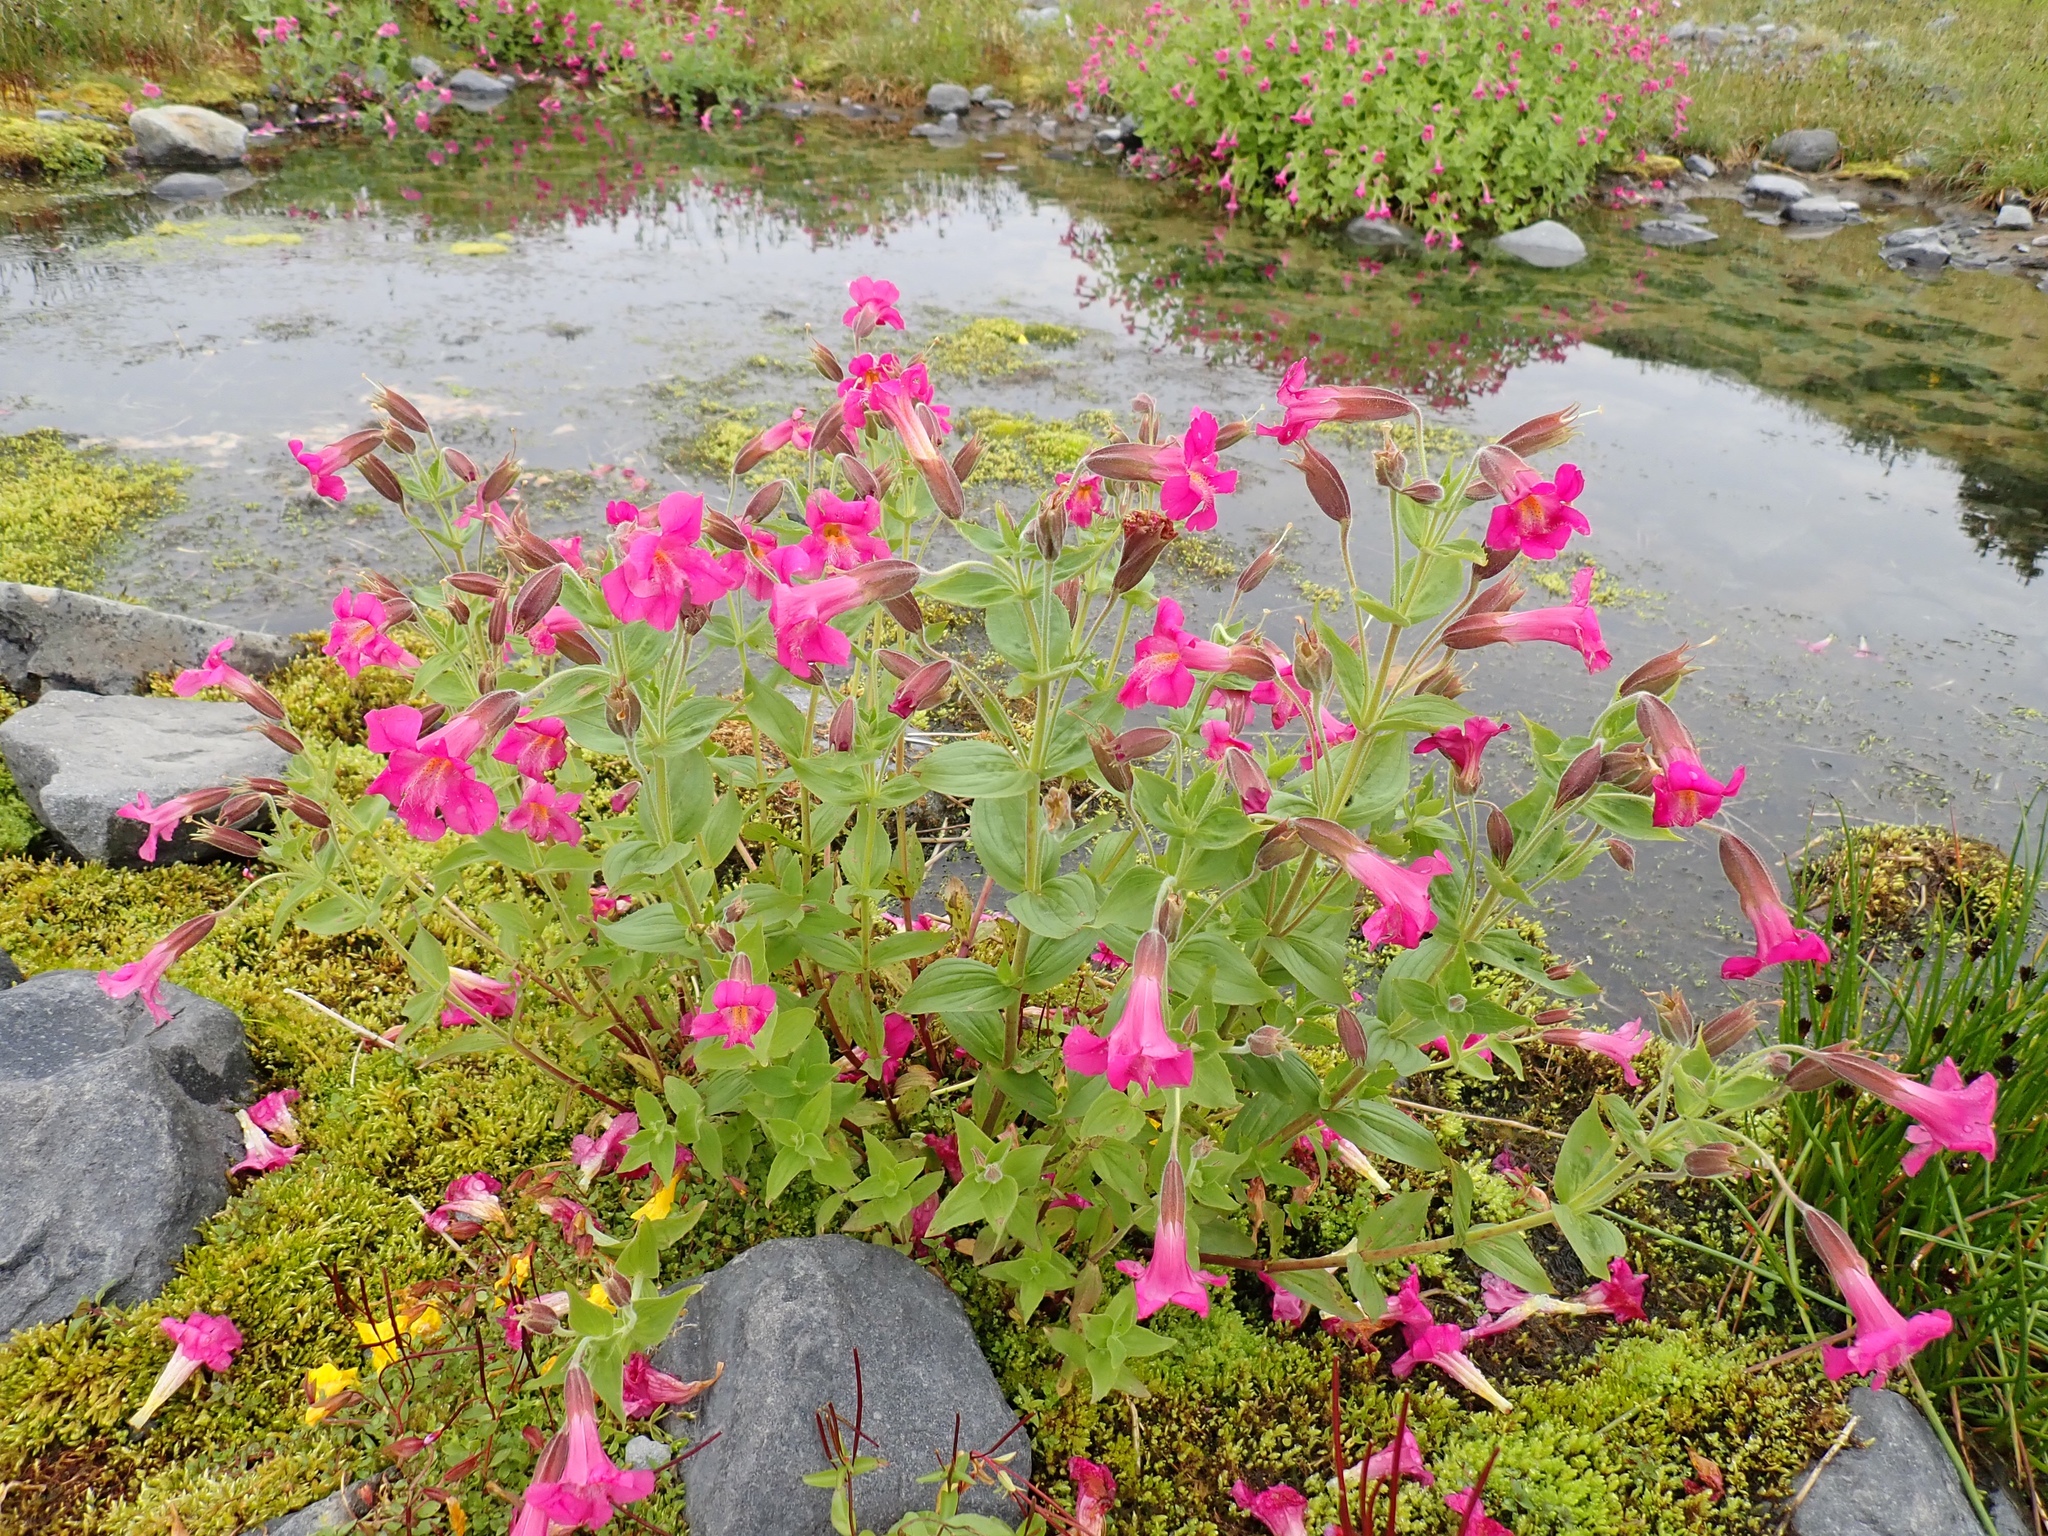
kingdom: Plantae
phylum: Tracheophyta
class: Magnoliopsida
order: Lamiales
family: Phrymaceae
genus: Erythranthe
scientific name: Erythranthe lewisii
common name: Lewis's monkey-flower
